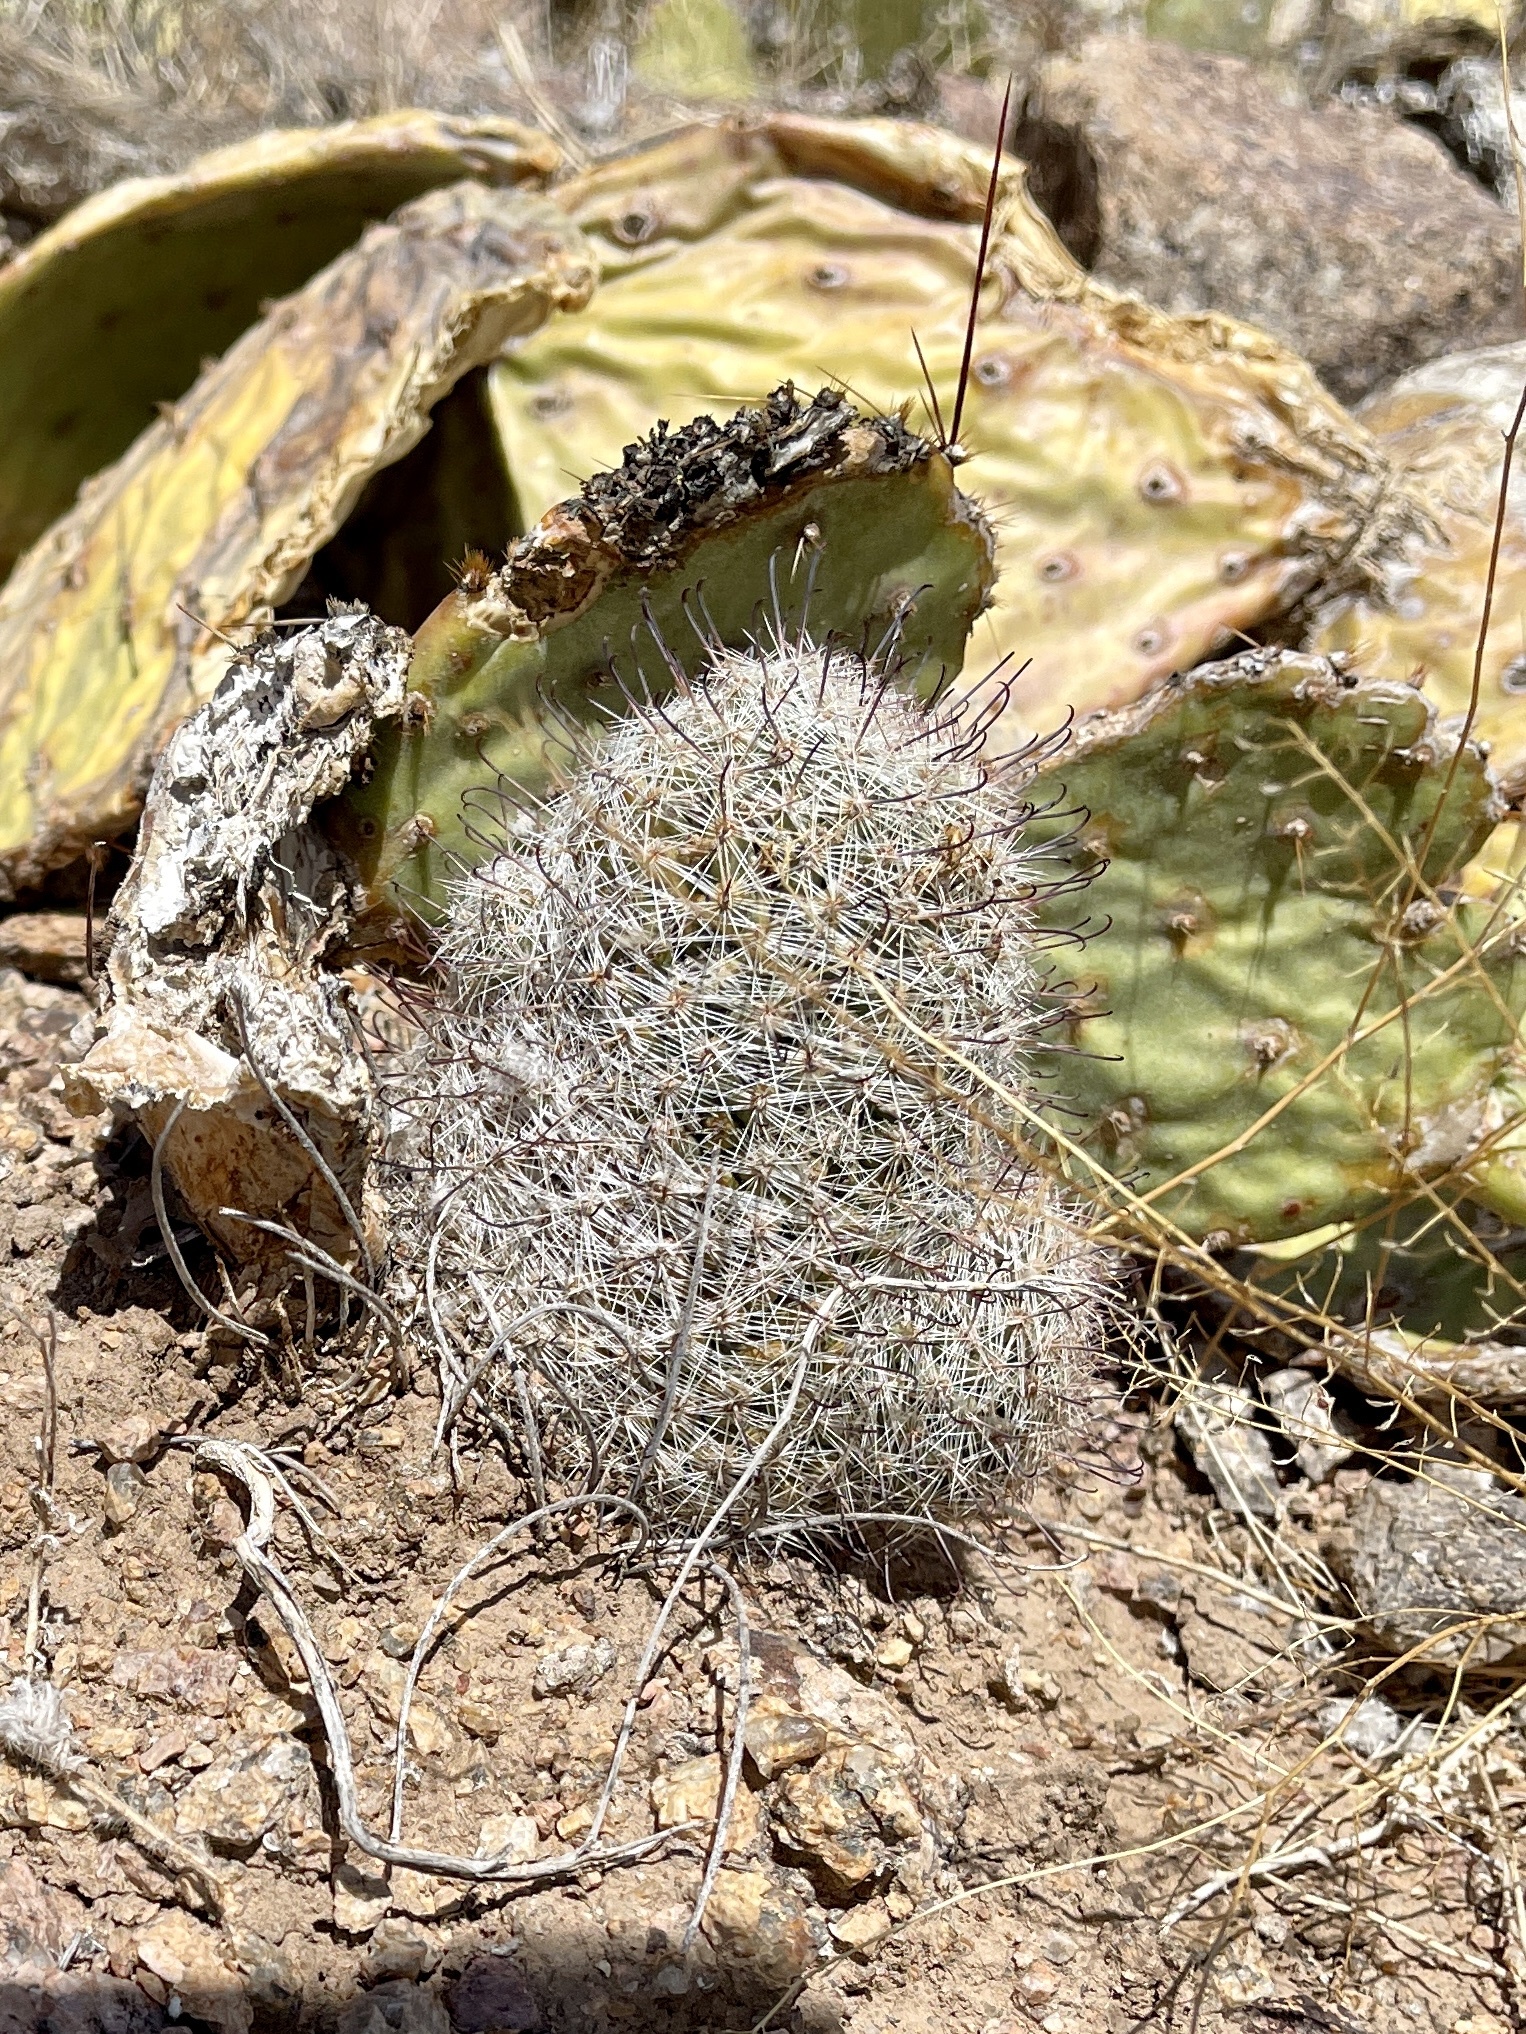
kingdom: Plantae
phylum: Tracheophyta
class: Magnoliopsida
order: Caryophyllales
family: Cactaceae
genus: Cochemiea
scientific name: Cochemiea grahamii
